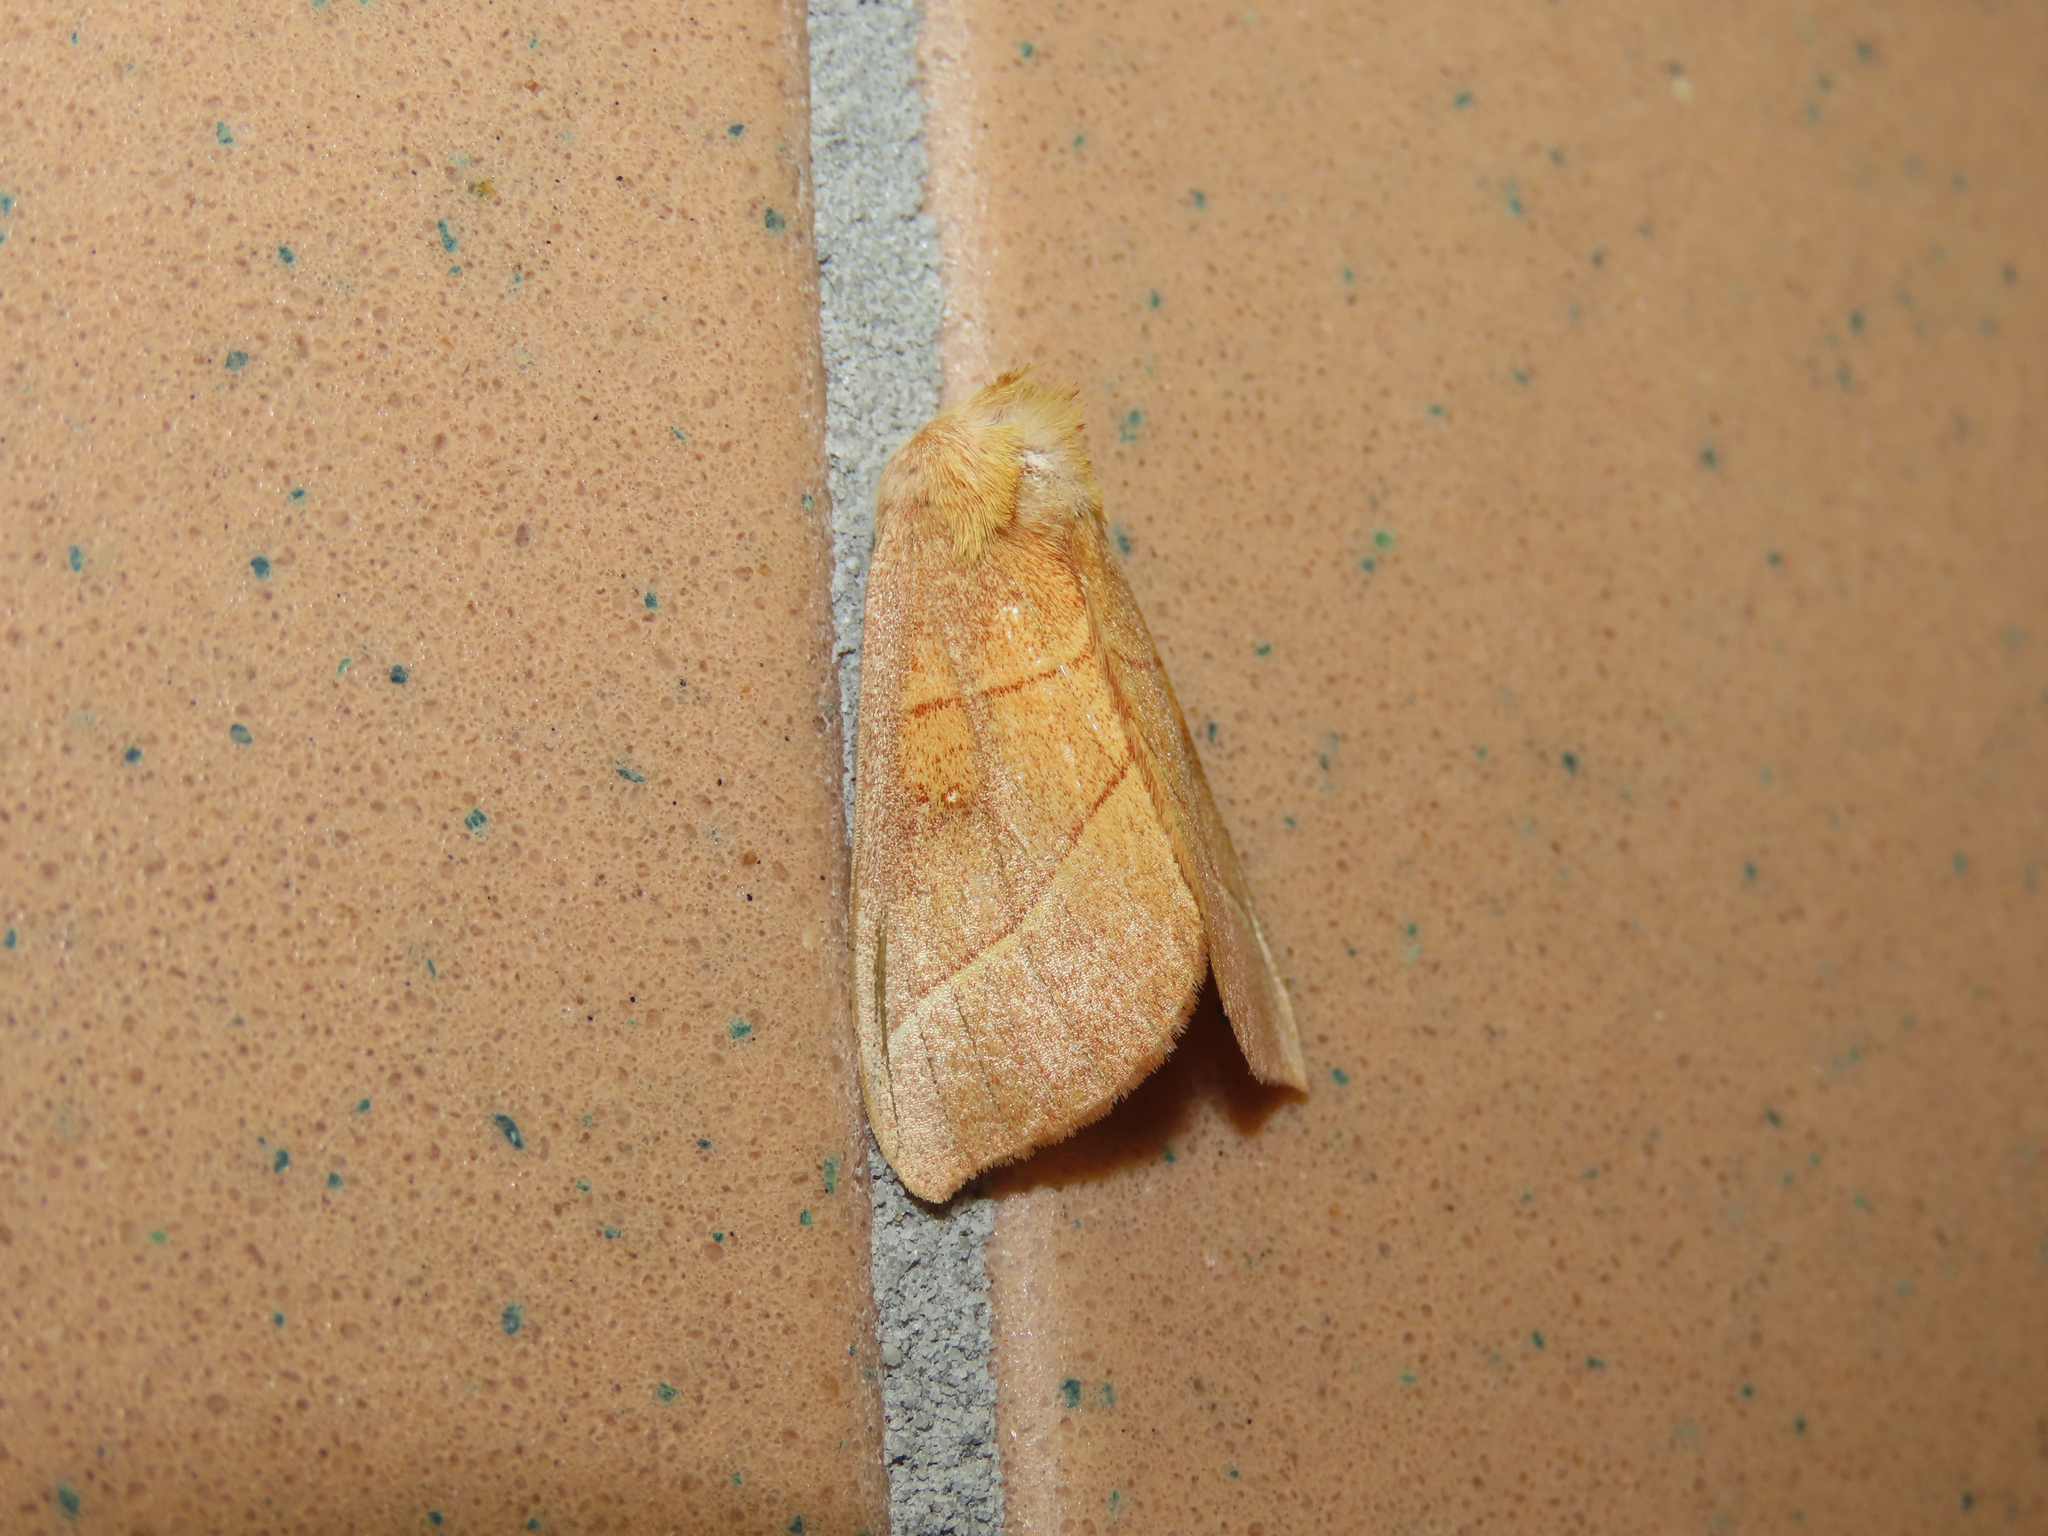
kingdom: Animalia
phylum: Arthropoda
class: Insecta
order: Lepidoptera
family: Notodontidae
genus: Nadata
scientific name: Nadata gibbosa
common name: White-dotted prominent
